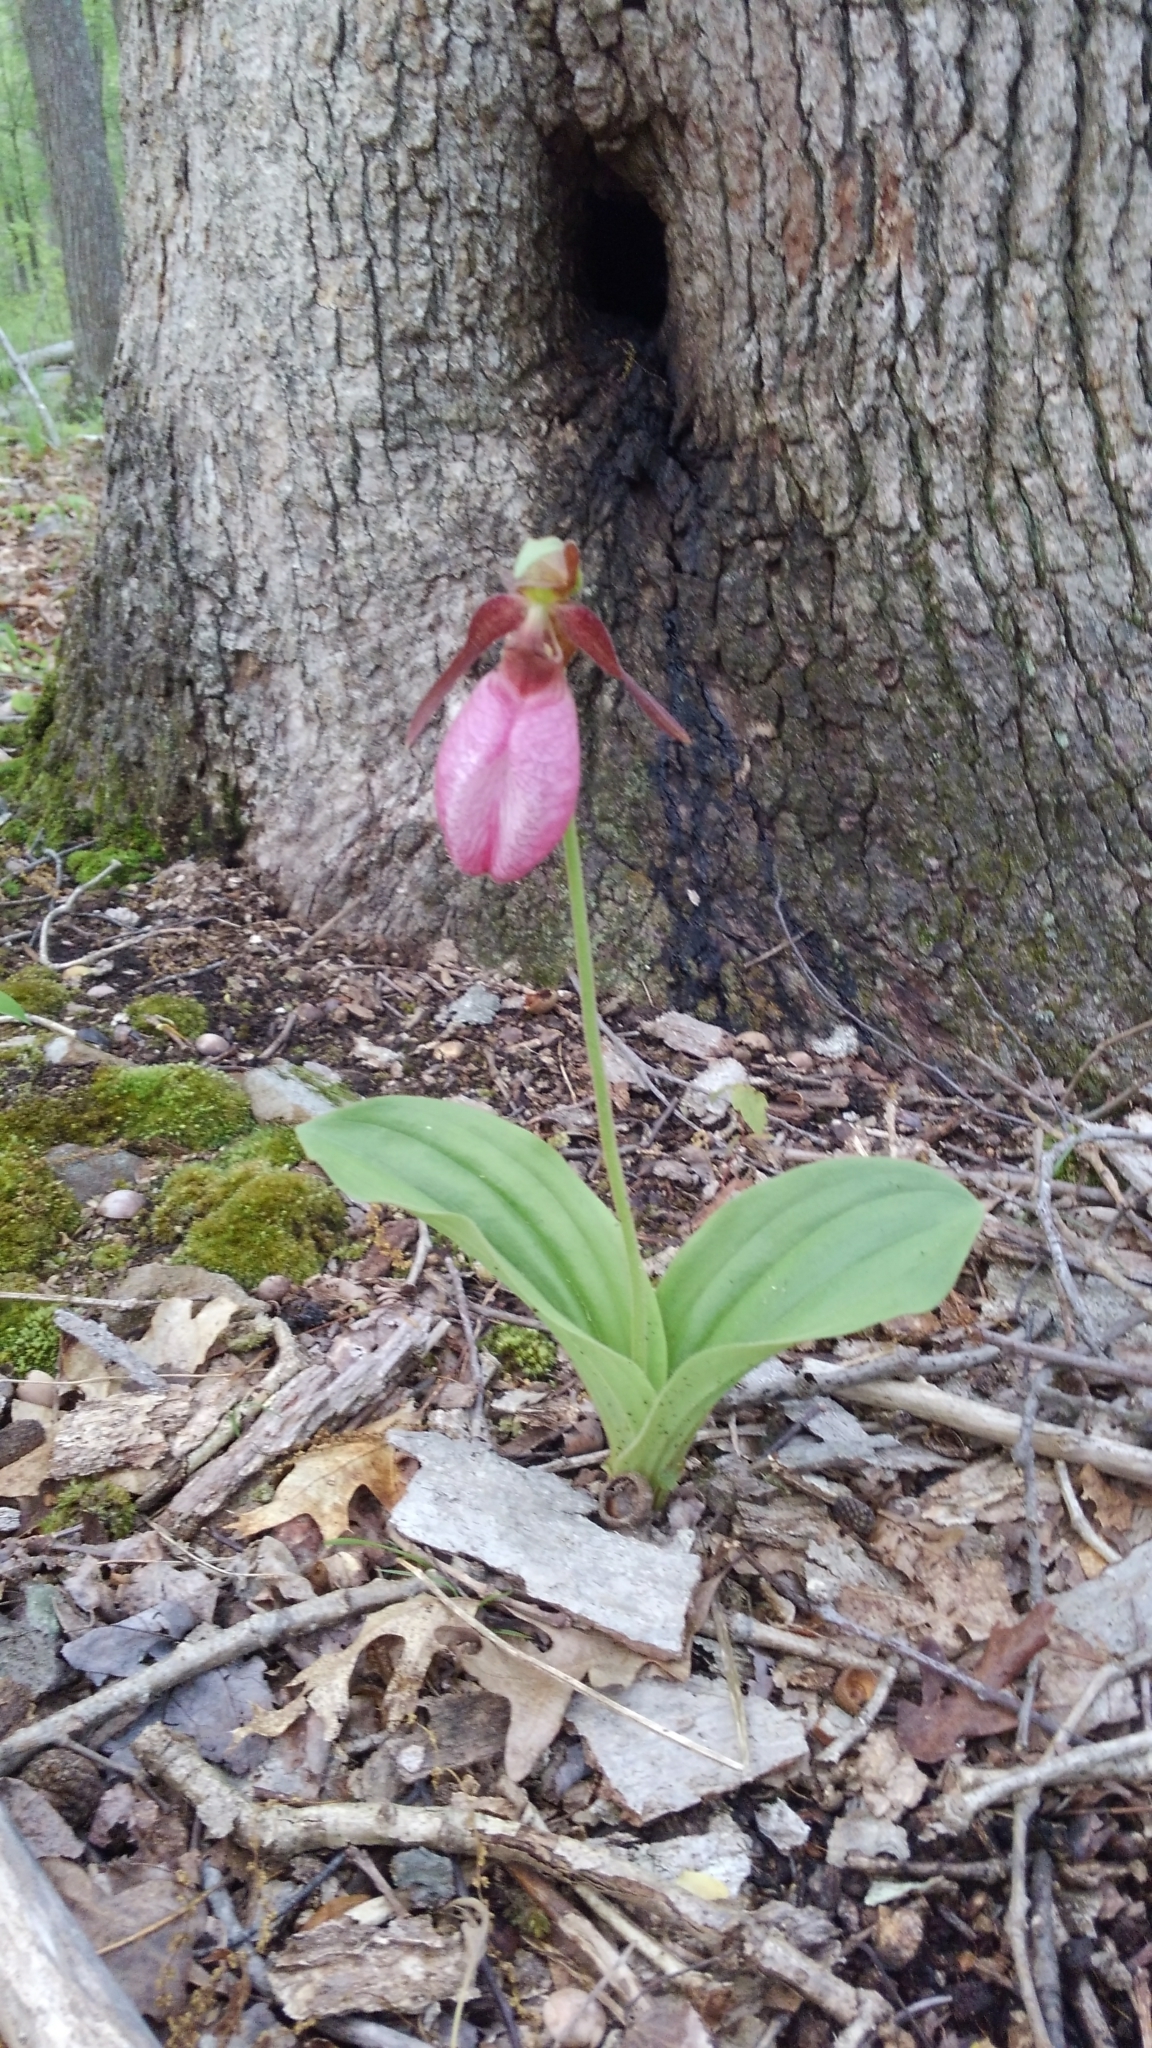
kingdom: Plantae
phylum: Tracheophyta
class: Liliopsida
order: Asparagales
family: Orchidaceae
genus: Cypripedium
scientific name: Cypripedium acaule
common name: Pink lady's-slipper
